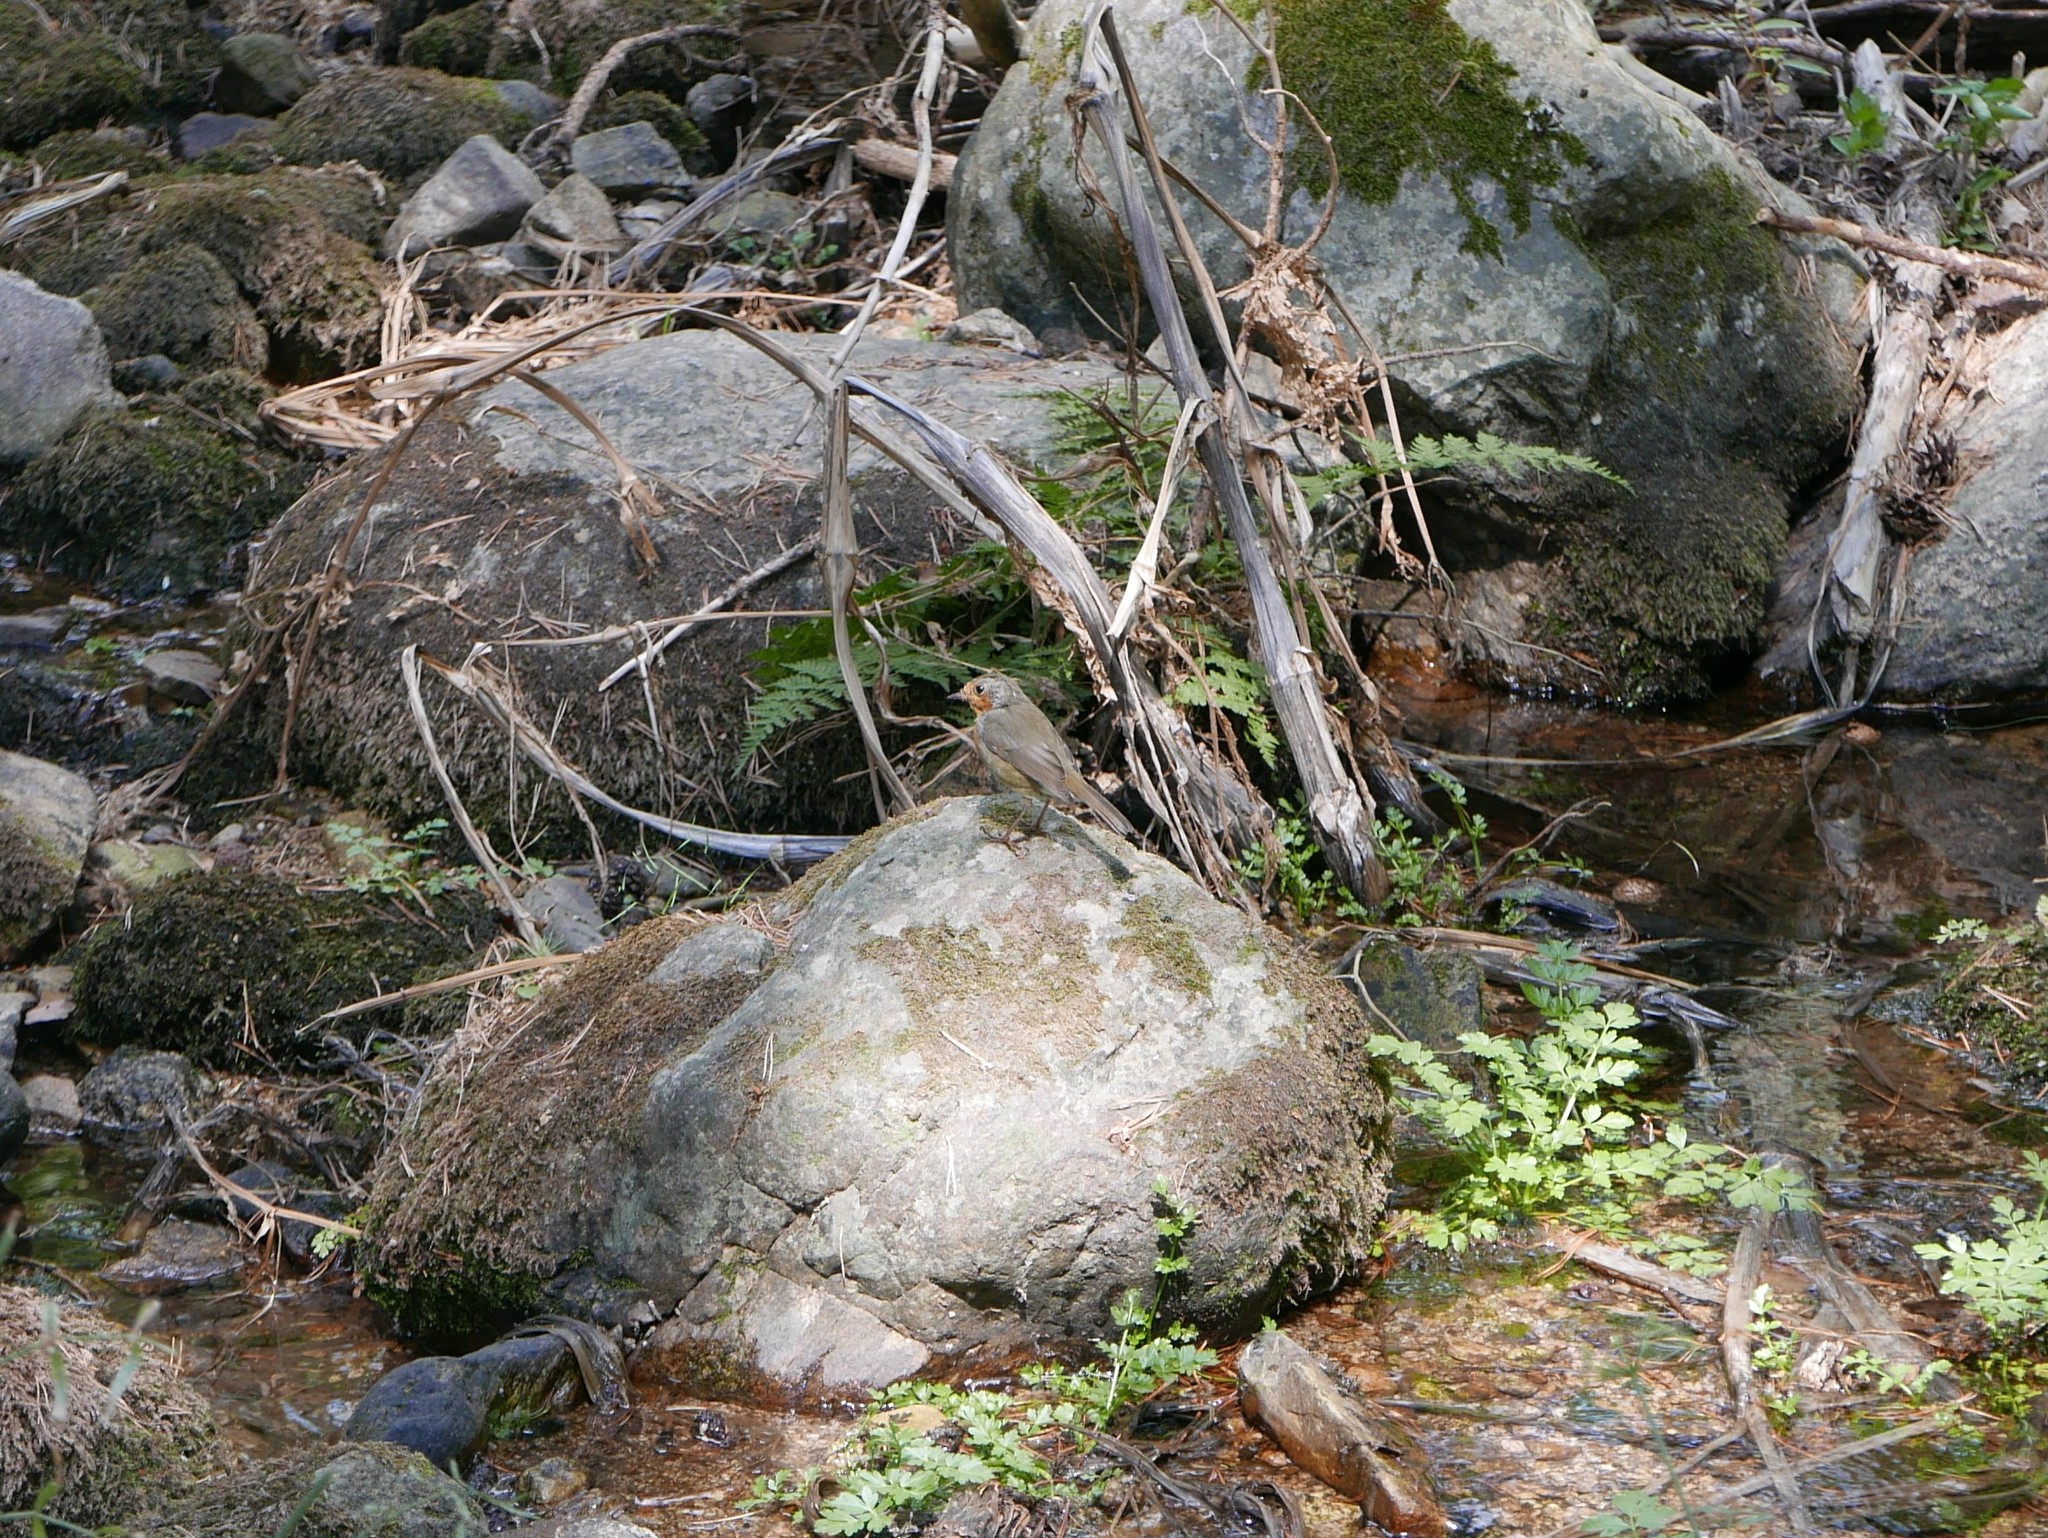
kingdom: Animalia
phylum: Chordata
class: Aves
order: Passeriformes
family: Muscicapidae
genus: Erithacus
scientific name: Erithacus rubecula
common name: European robin
